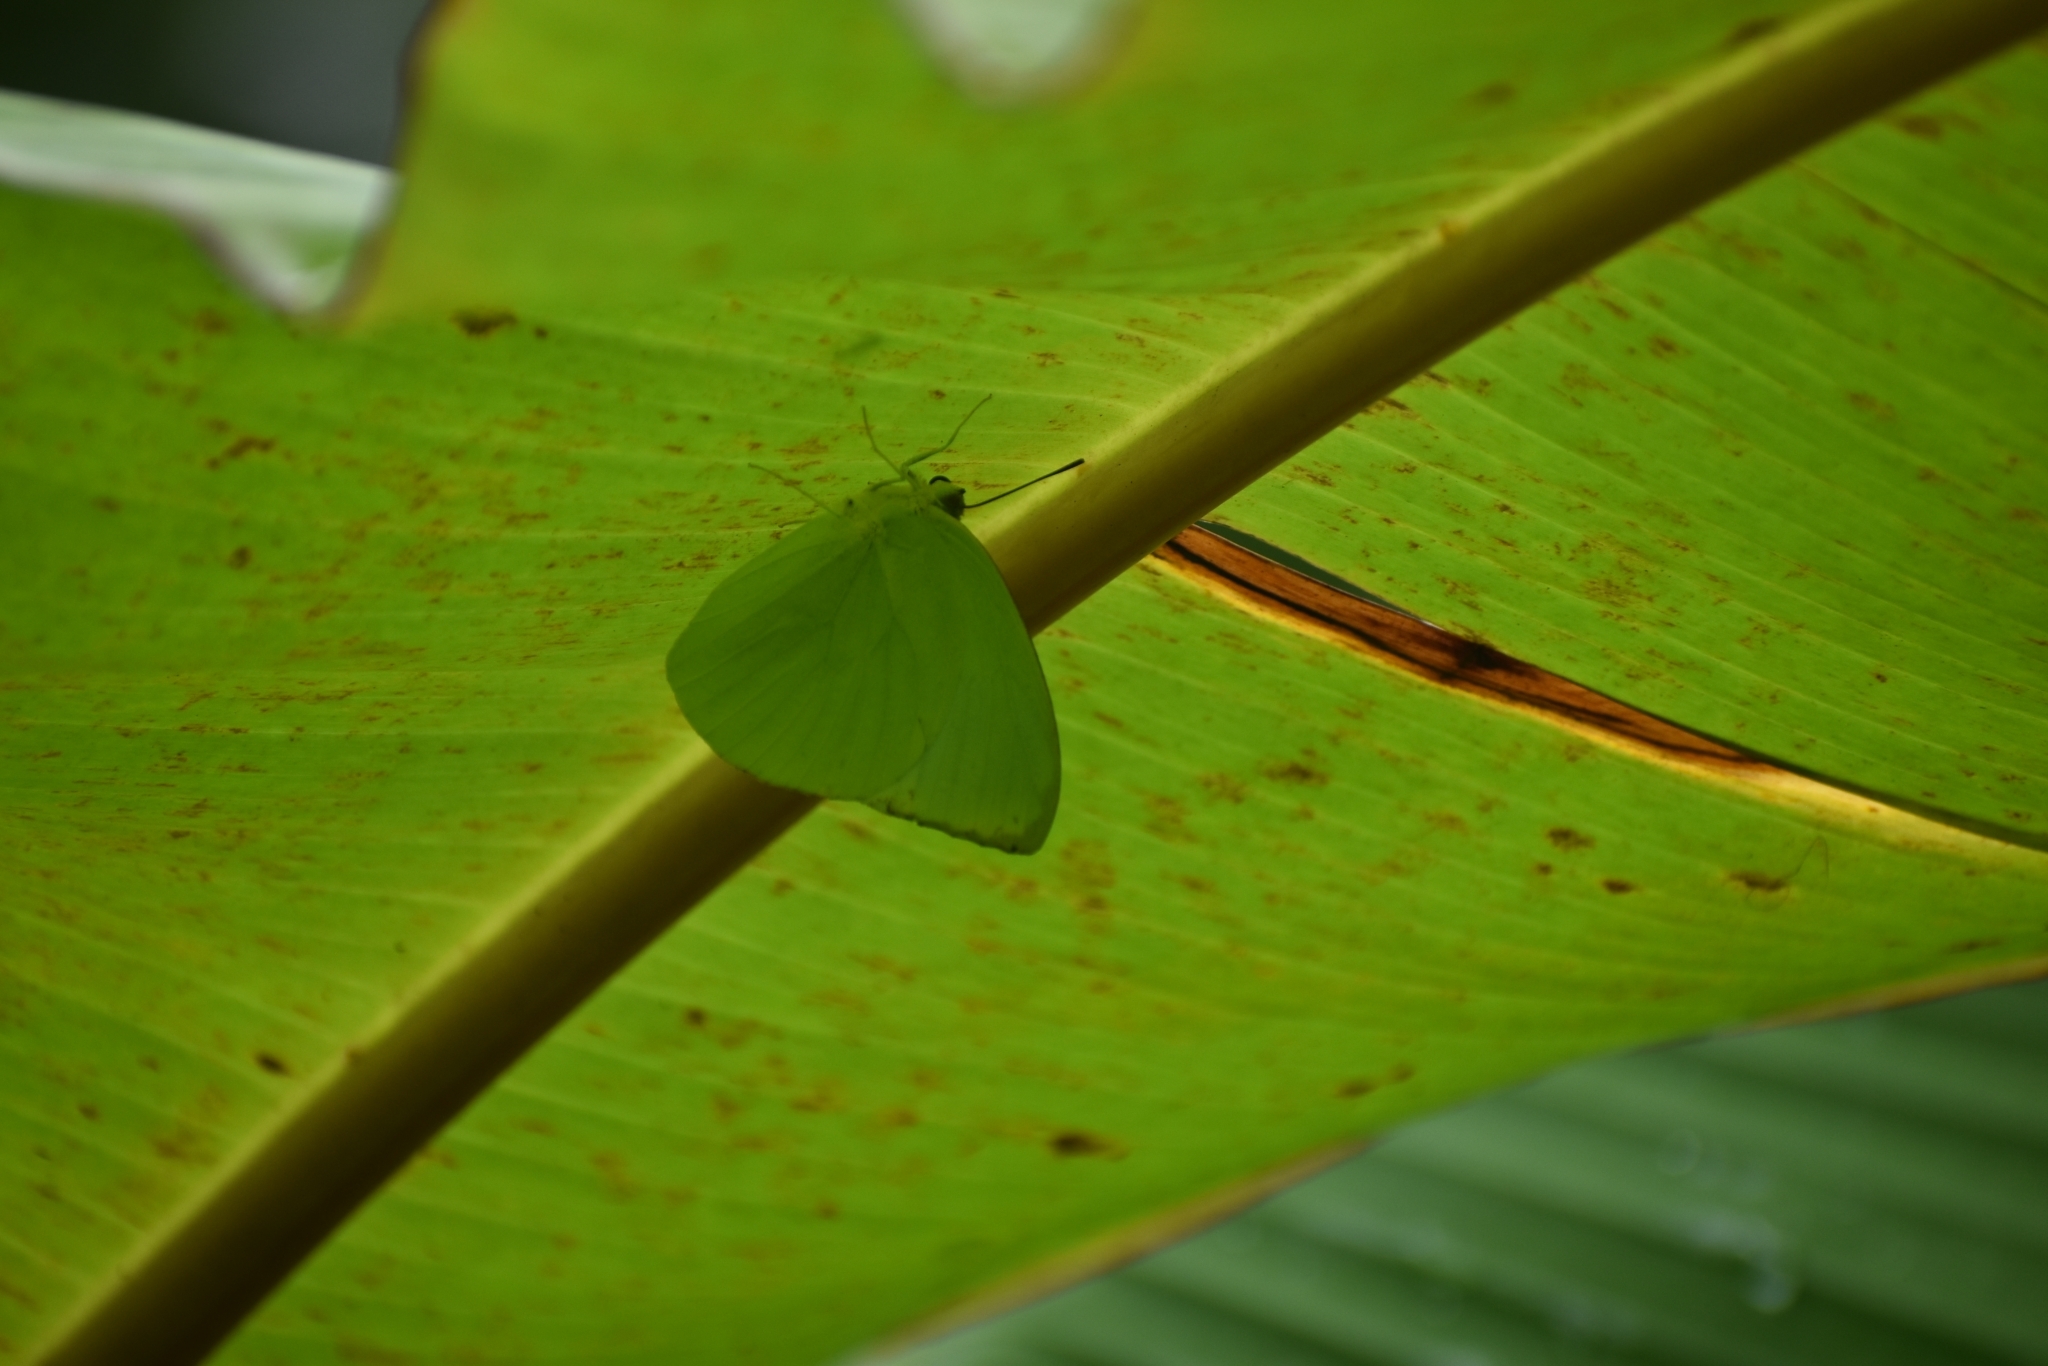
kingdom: Animalia
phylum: Arthropoda
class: Insecta
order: Lepidoptera
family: Pieridae
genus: Catopsilia
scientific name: Catopsilia pomona
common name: Common emigrant
